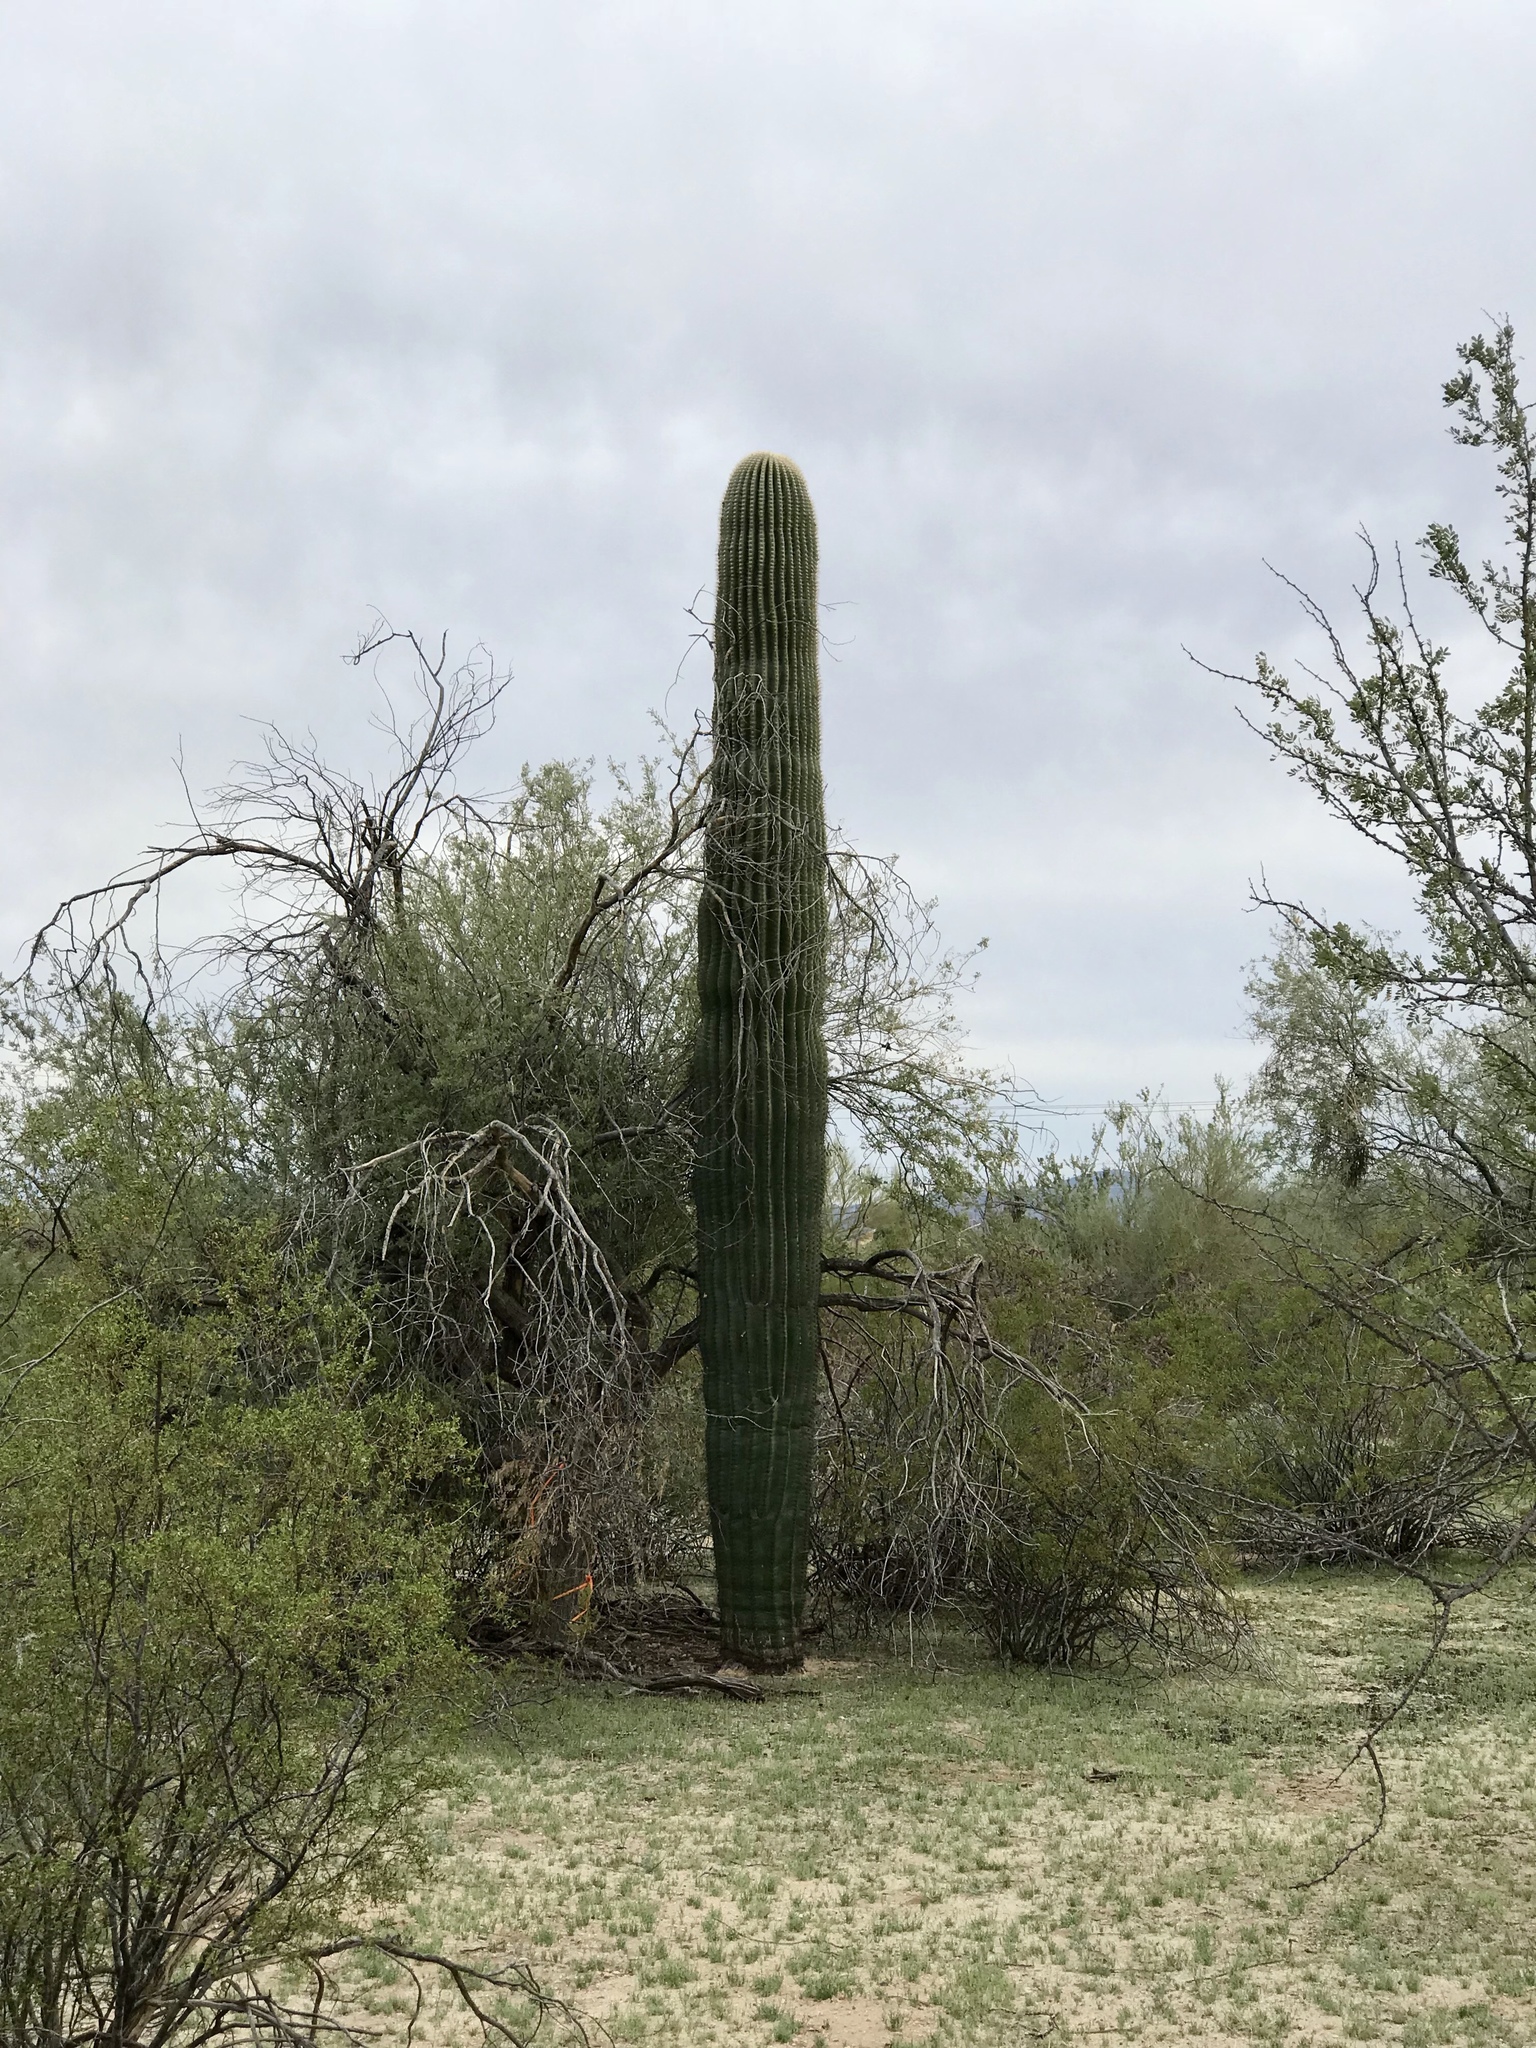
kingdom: Plantae
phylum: Tracheophyta
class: Magnoliopsida
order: Caryophyllales
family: Cactaceae
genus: Carnegiea
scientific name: Carnegiea gigantea
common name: Saguaro
